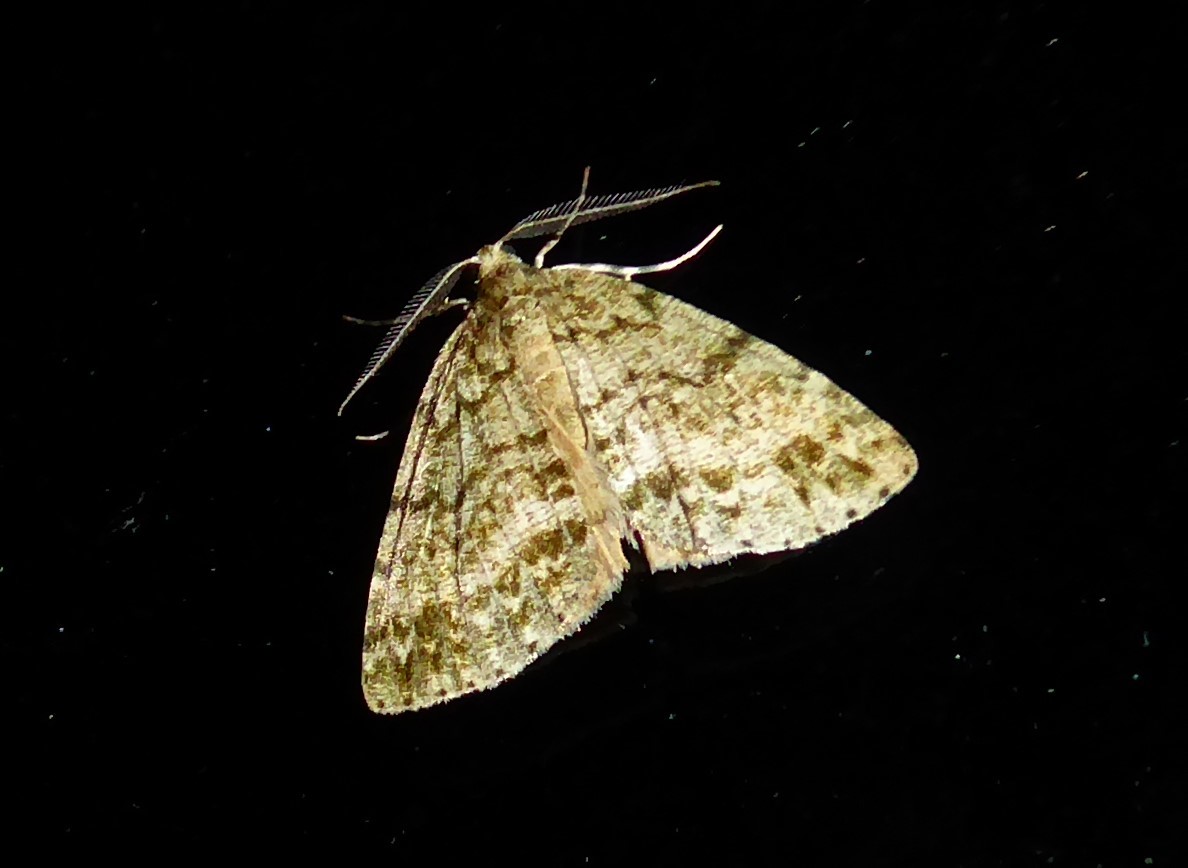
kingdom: Animalia
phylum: Arthropoda
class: Insecta
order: Lepidoptera
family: Geometridae
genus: Pseudocoremia
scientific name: Pseudocoremia indistincta
